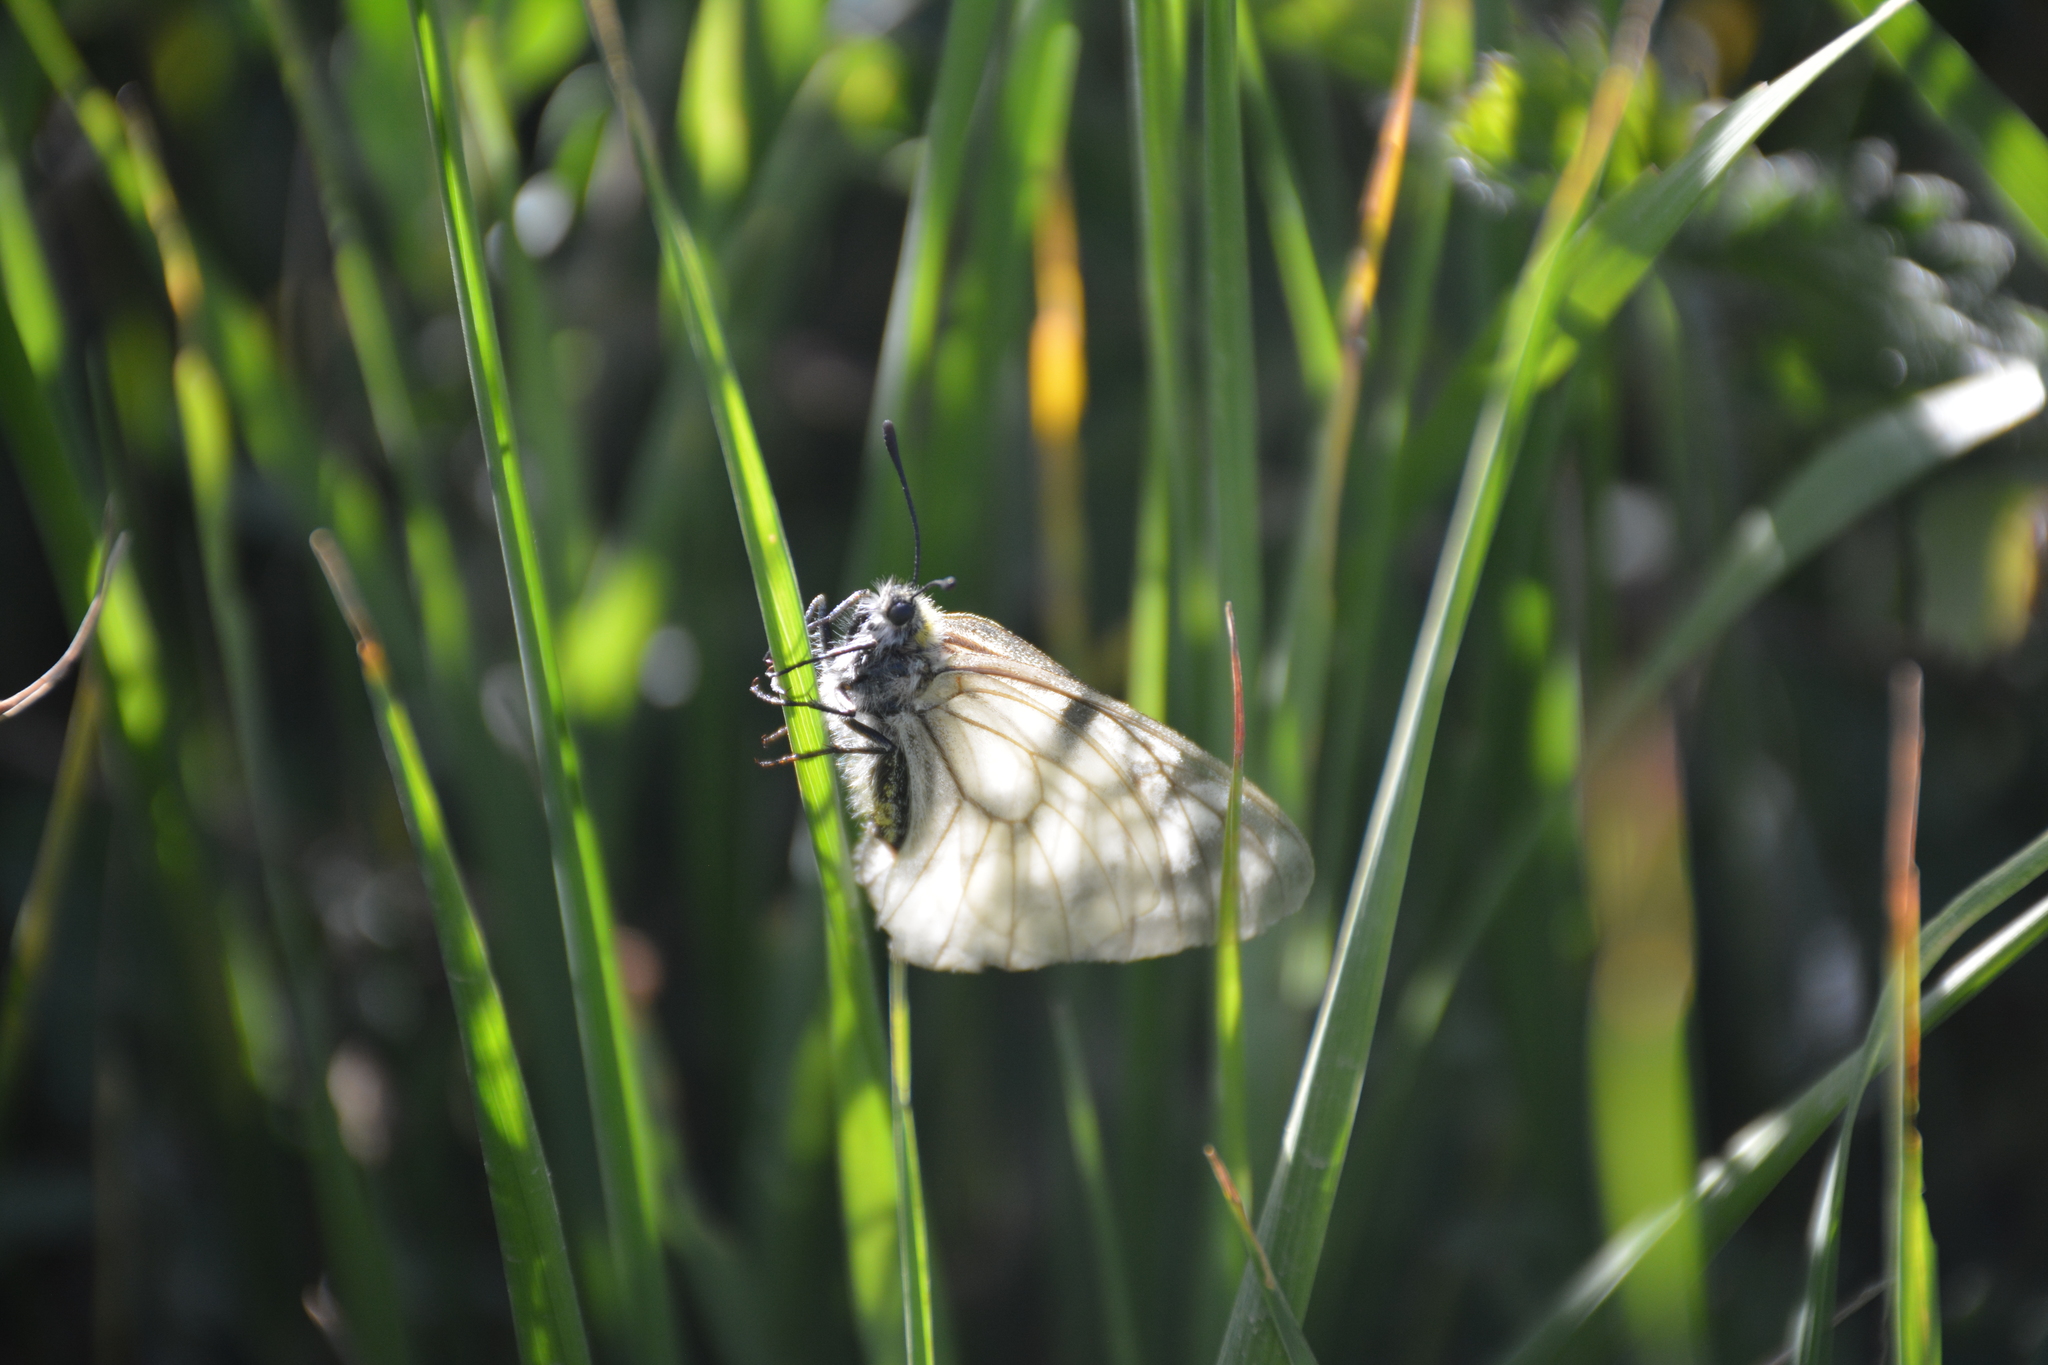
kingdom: Animalia
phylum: Arthropoda
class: Insecta
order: Lepidoptera
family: Papilionidae
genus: Parnassius
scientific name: Parnassius mnemosyne
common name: Clouded apollo
